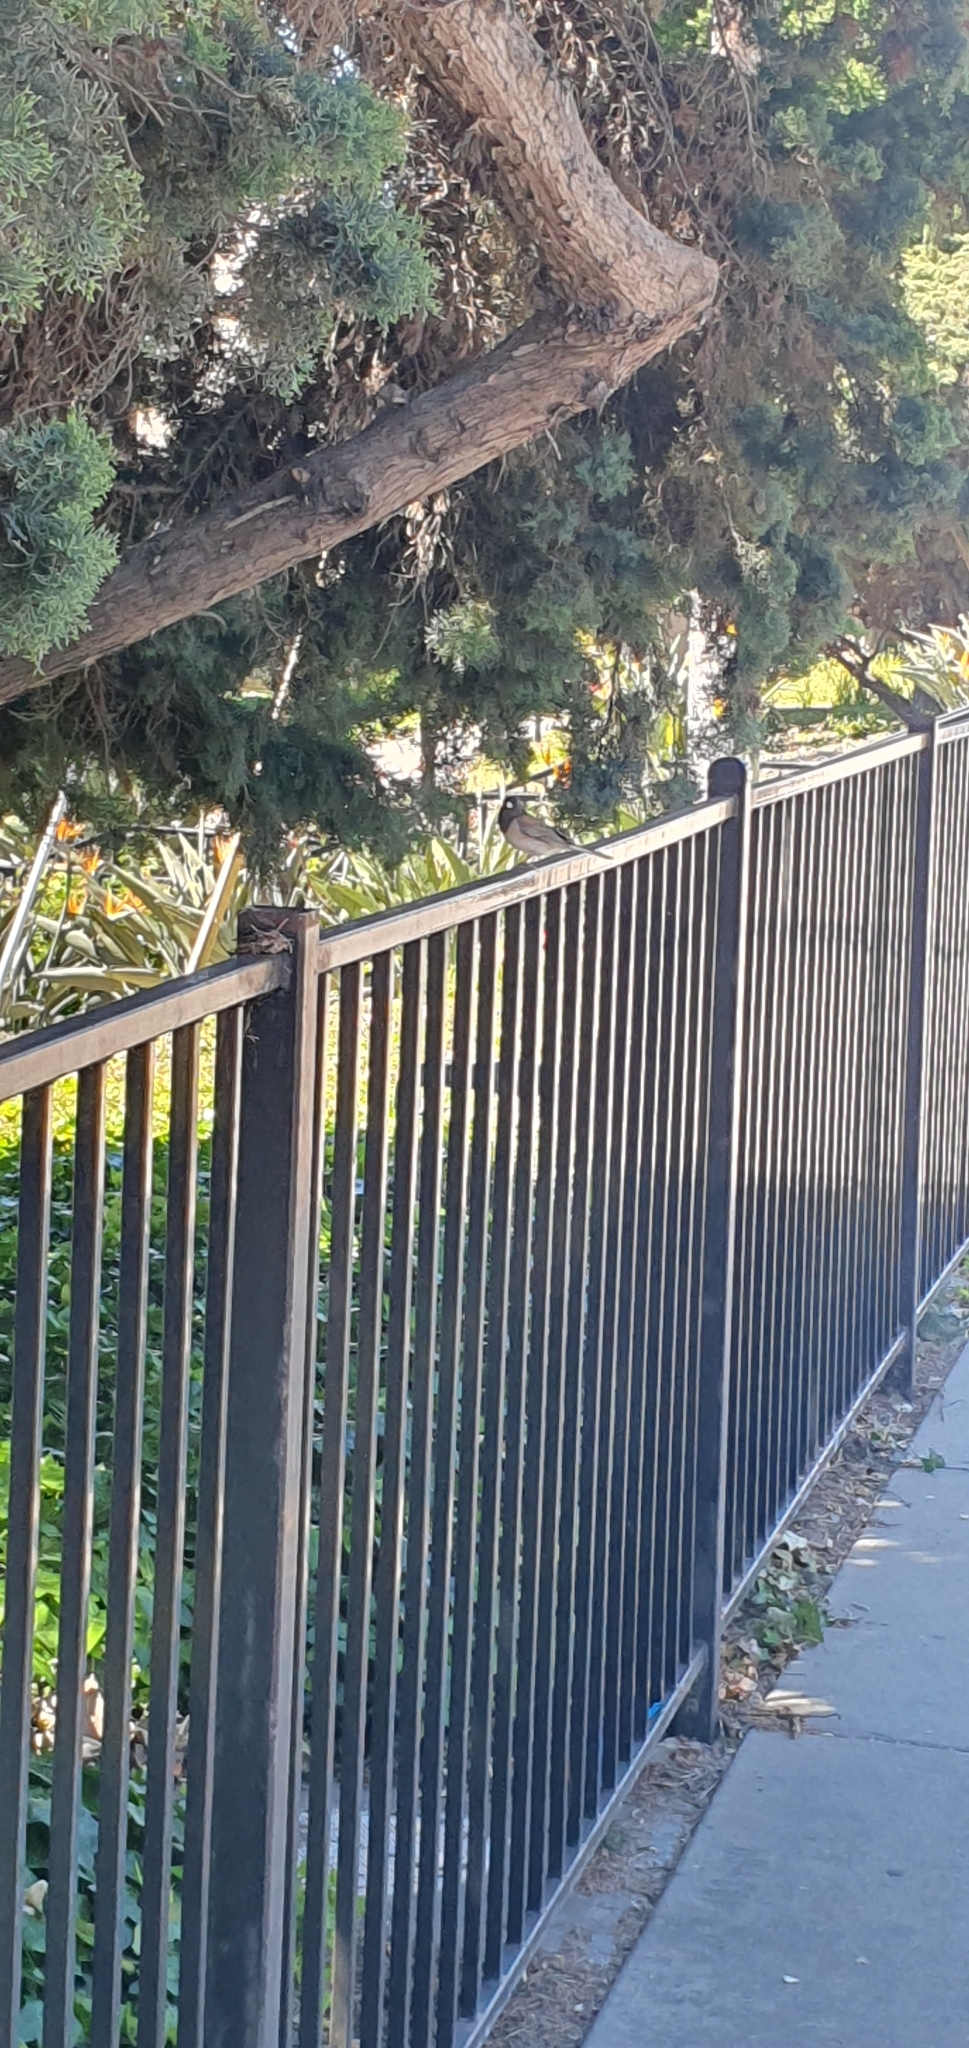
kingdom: Animalia
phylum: Chordata
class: Aves
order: Passeriformes
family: Passerellidae
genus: Junco
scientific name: Junco hyemalis
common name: Dark-eyed junco
